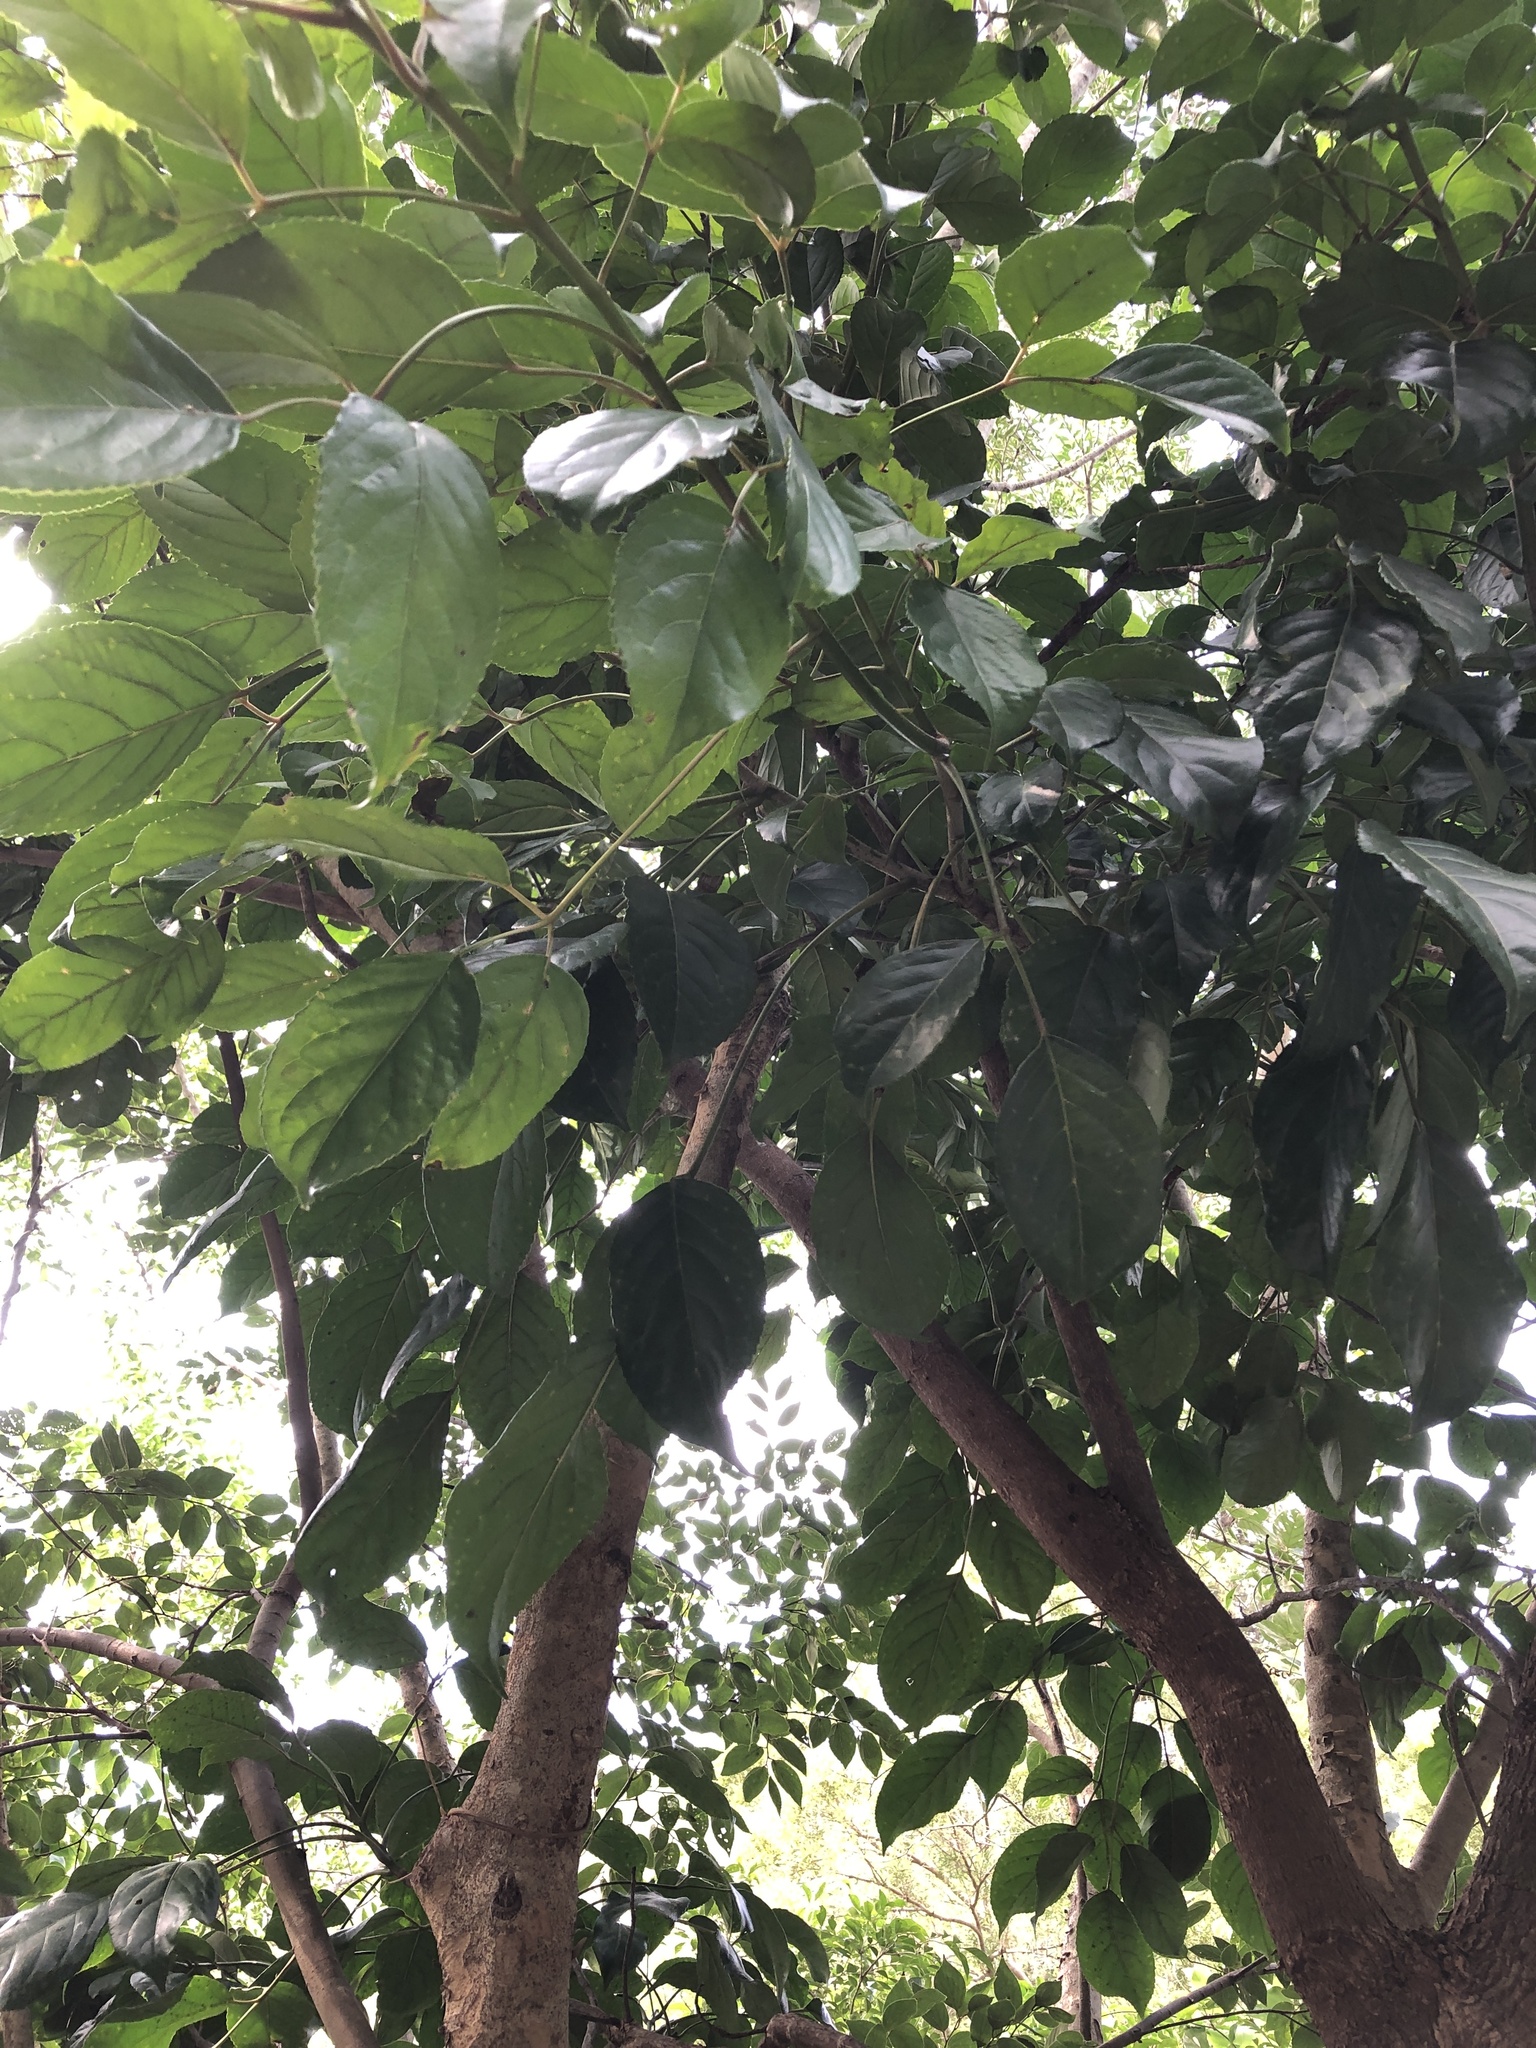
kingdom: Plantae
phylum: Tracheophyta
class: Magnoliopsida
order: Malpighiales
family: Phyllanthaceae
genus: Bischofia
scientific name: Bischofia javanica
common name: Javanese bishopwood
